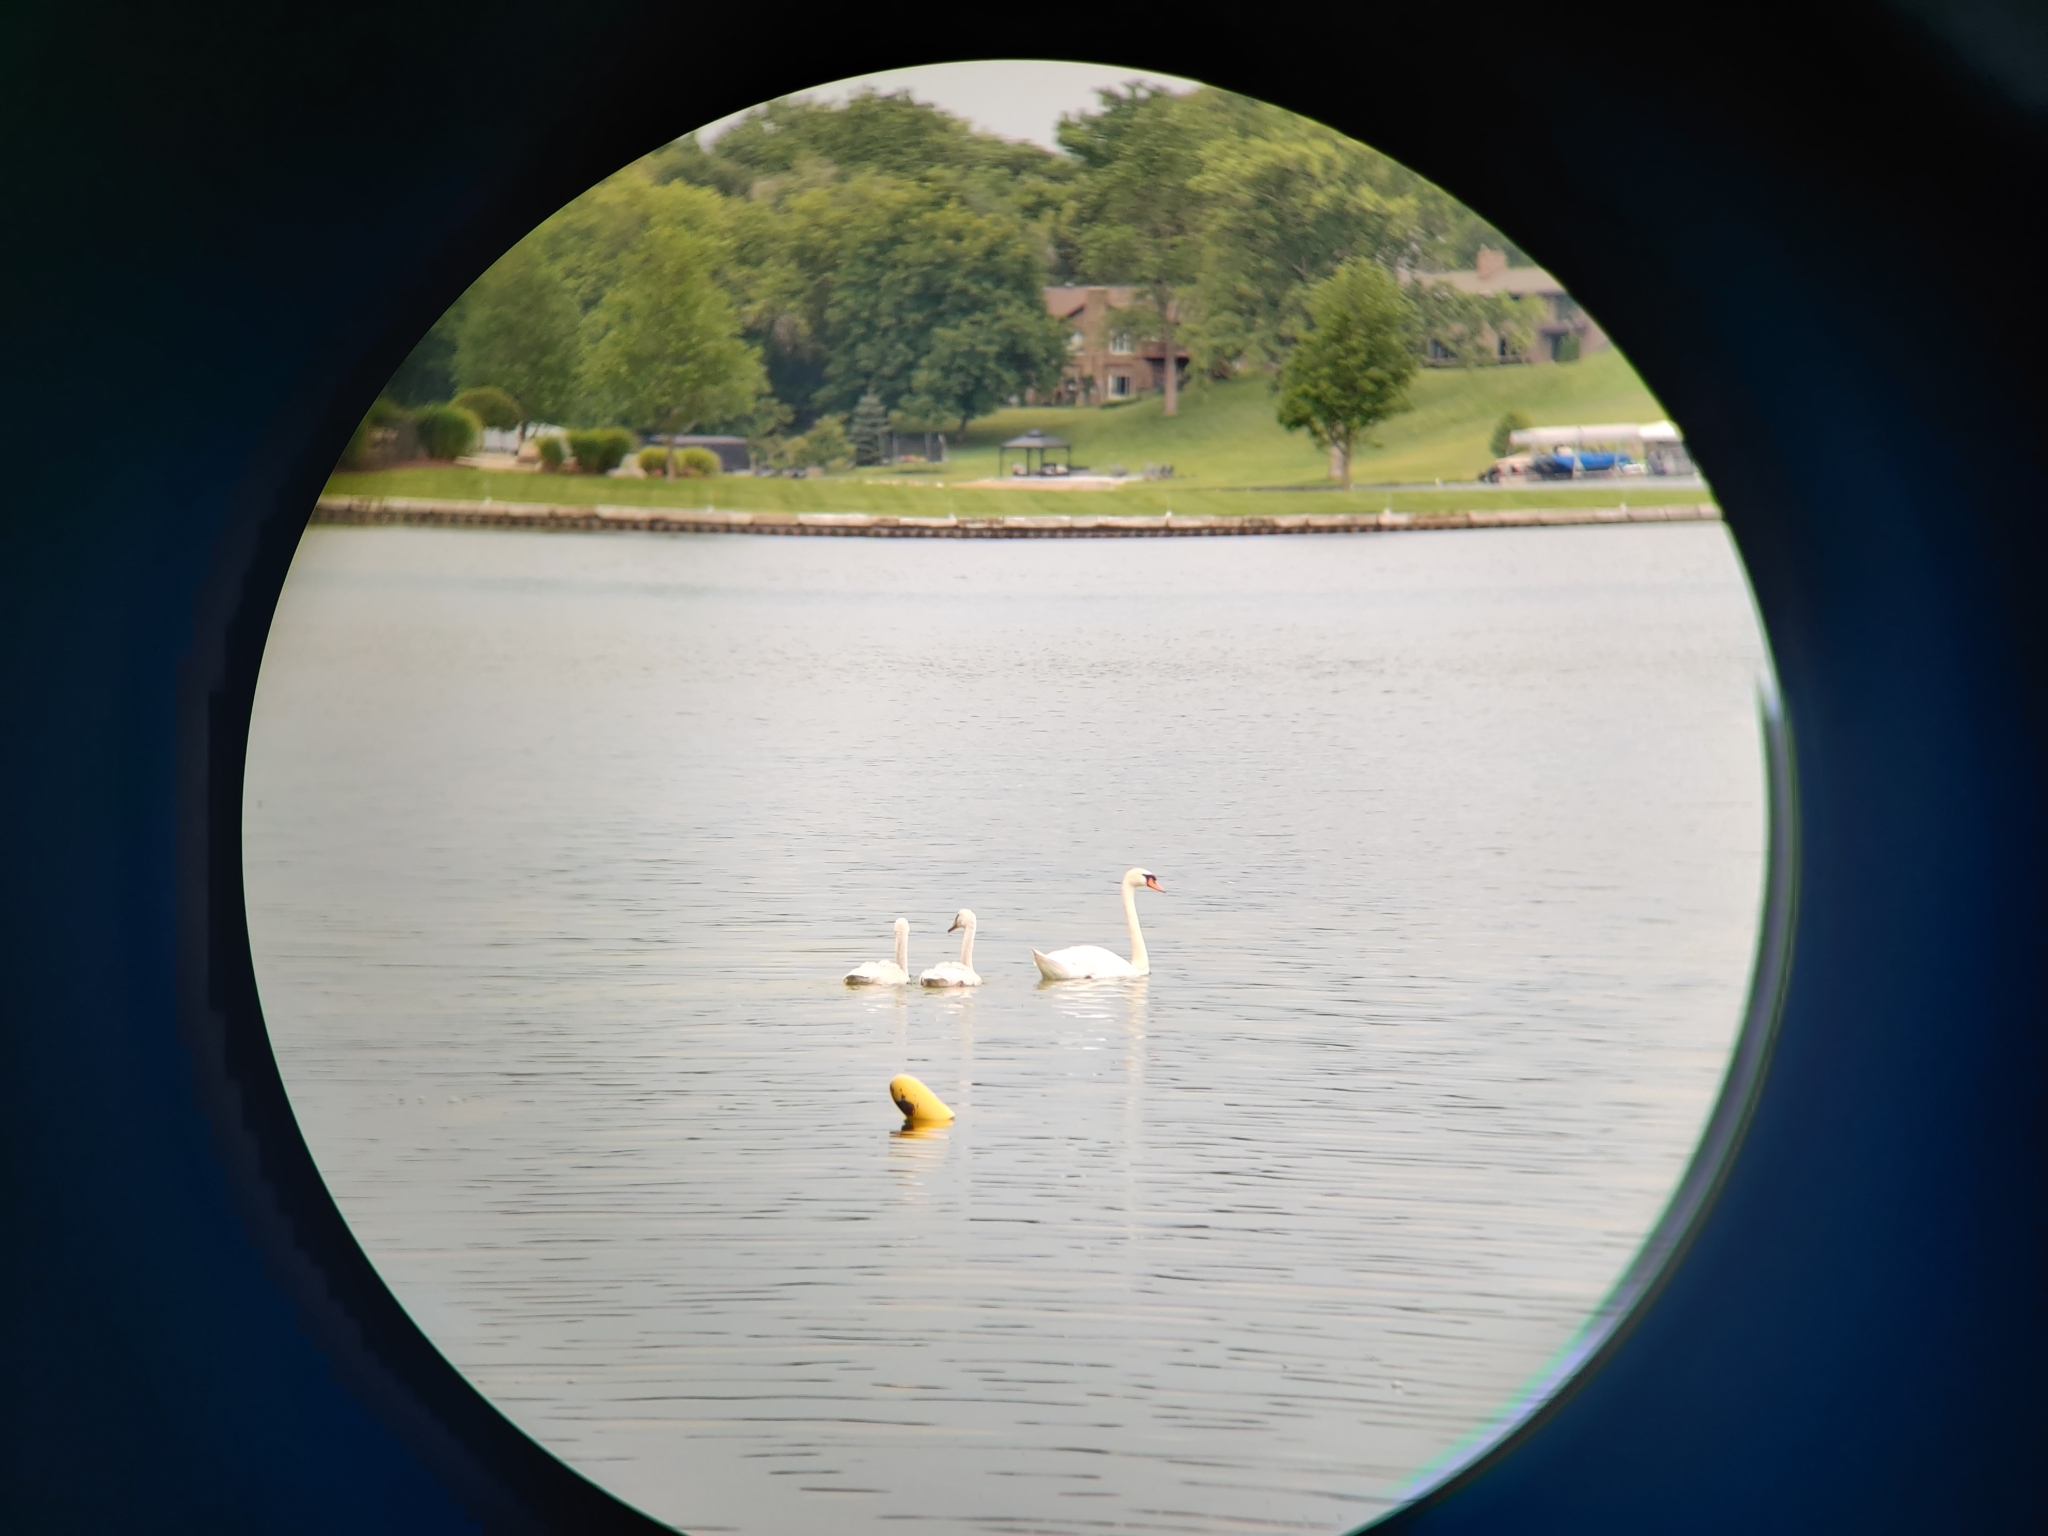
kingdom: Animalia
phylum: Chordata
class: Aves
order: Anseriformes
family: Anatidae
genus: Cygnus
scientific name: Cygnus olor
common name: Mute swan
